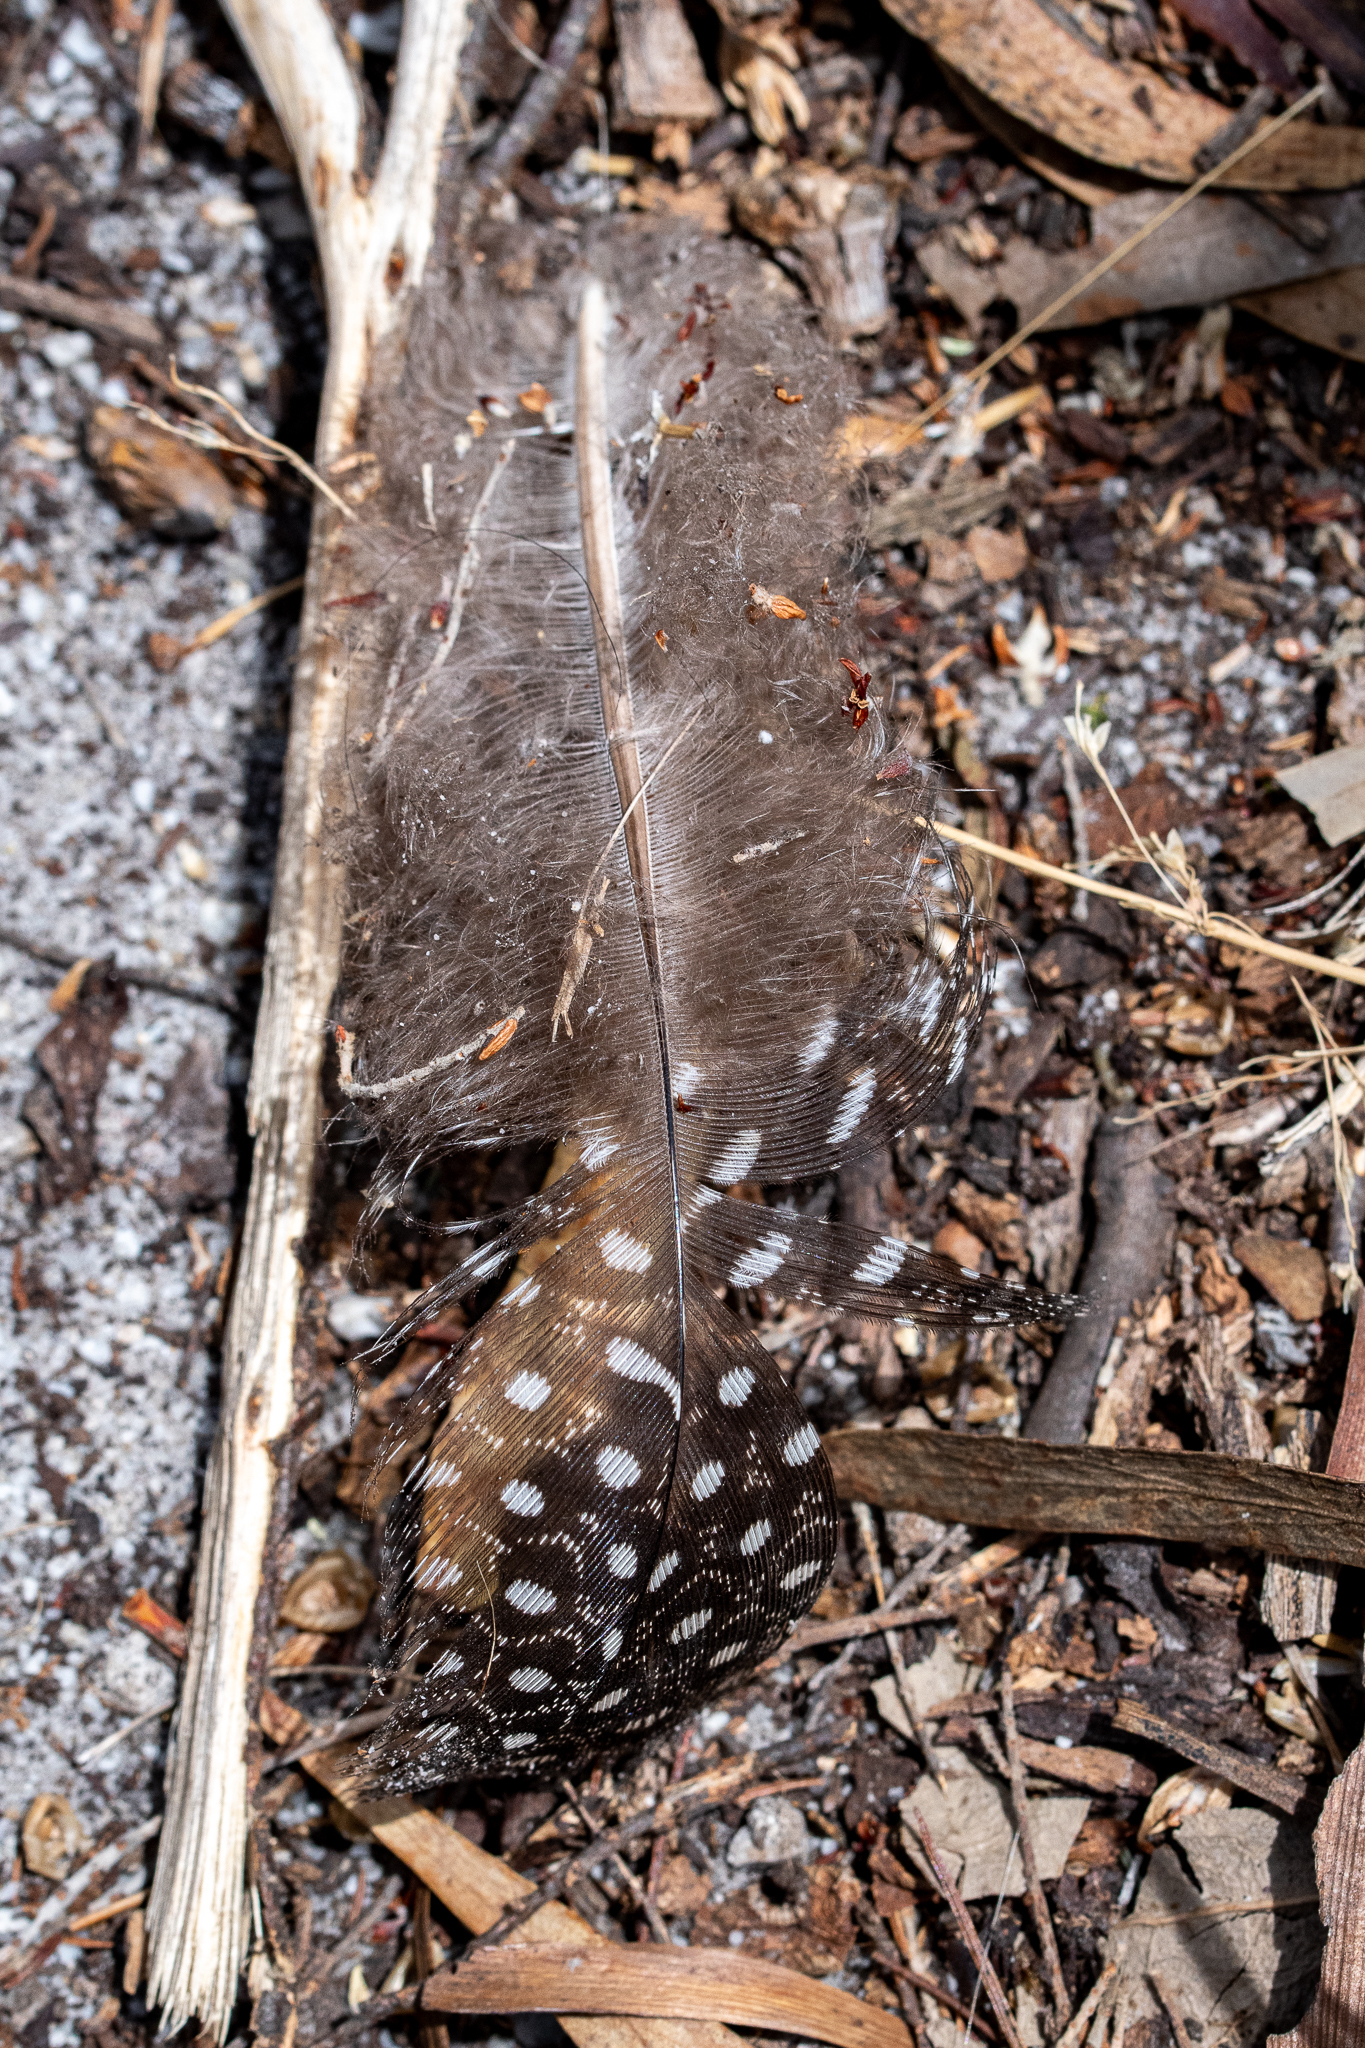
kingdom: Animalia
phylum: Chordata
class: Aves
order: Galliformes
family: Numididae
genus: Numida
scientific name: Numida meleagris
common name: Helmeted guineafowl
